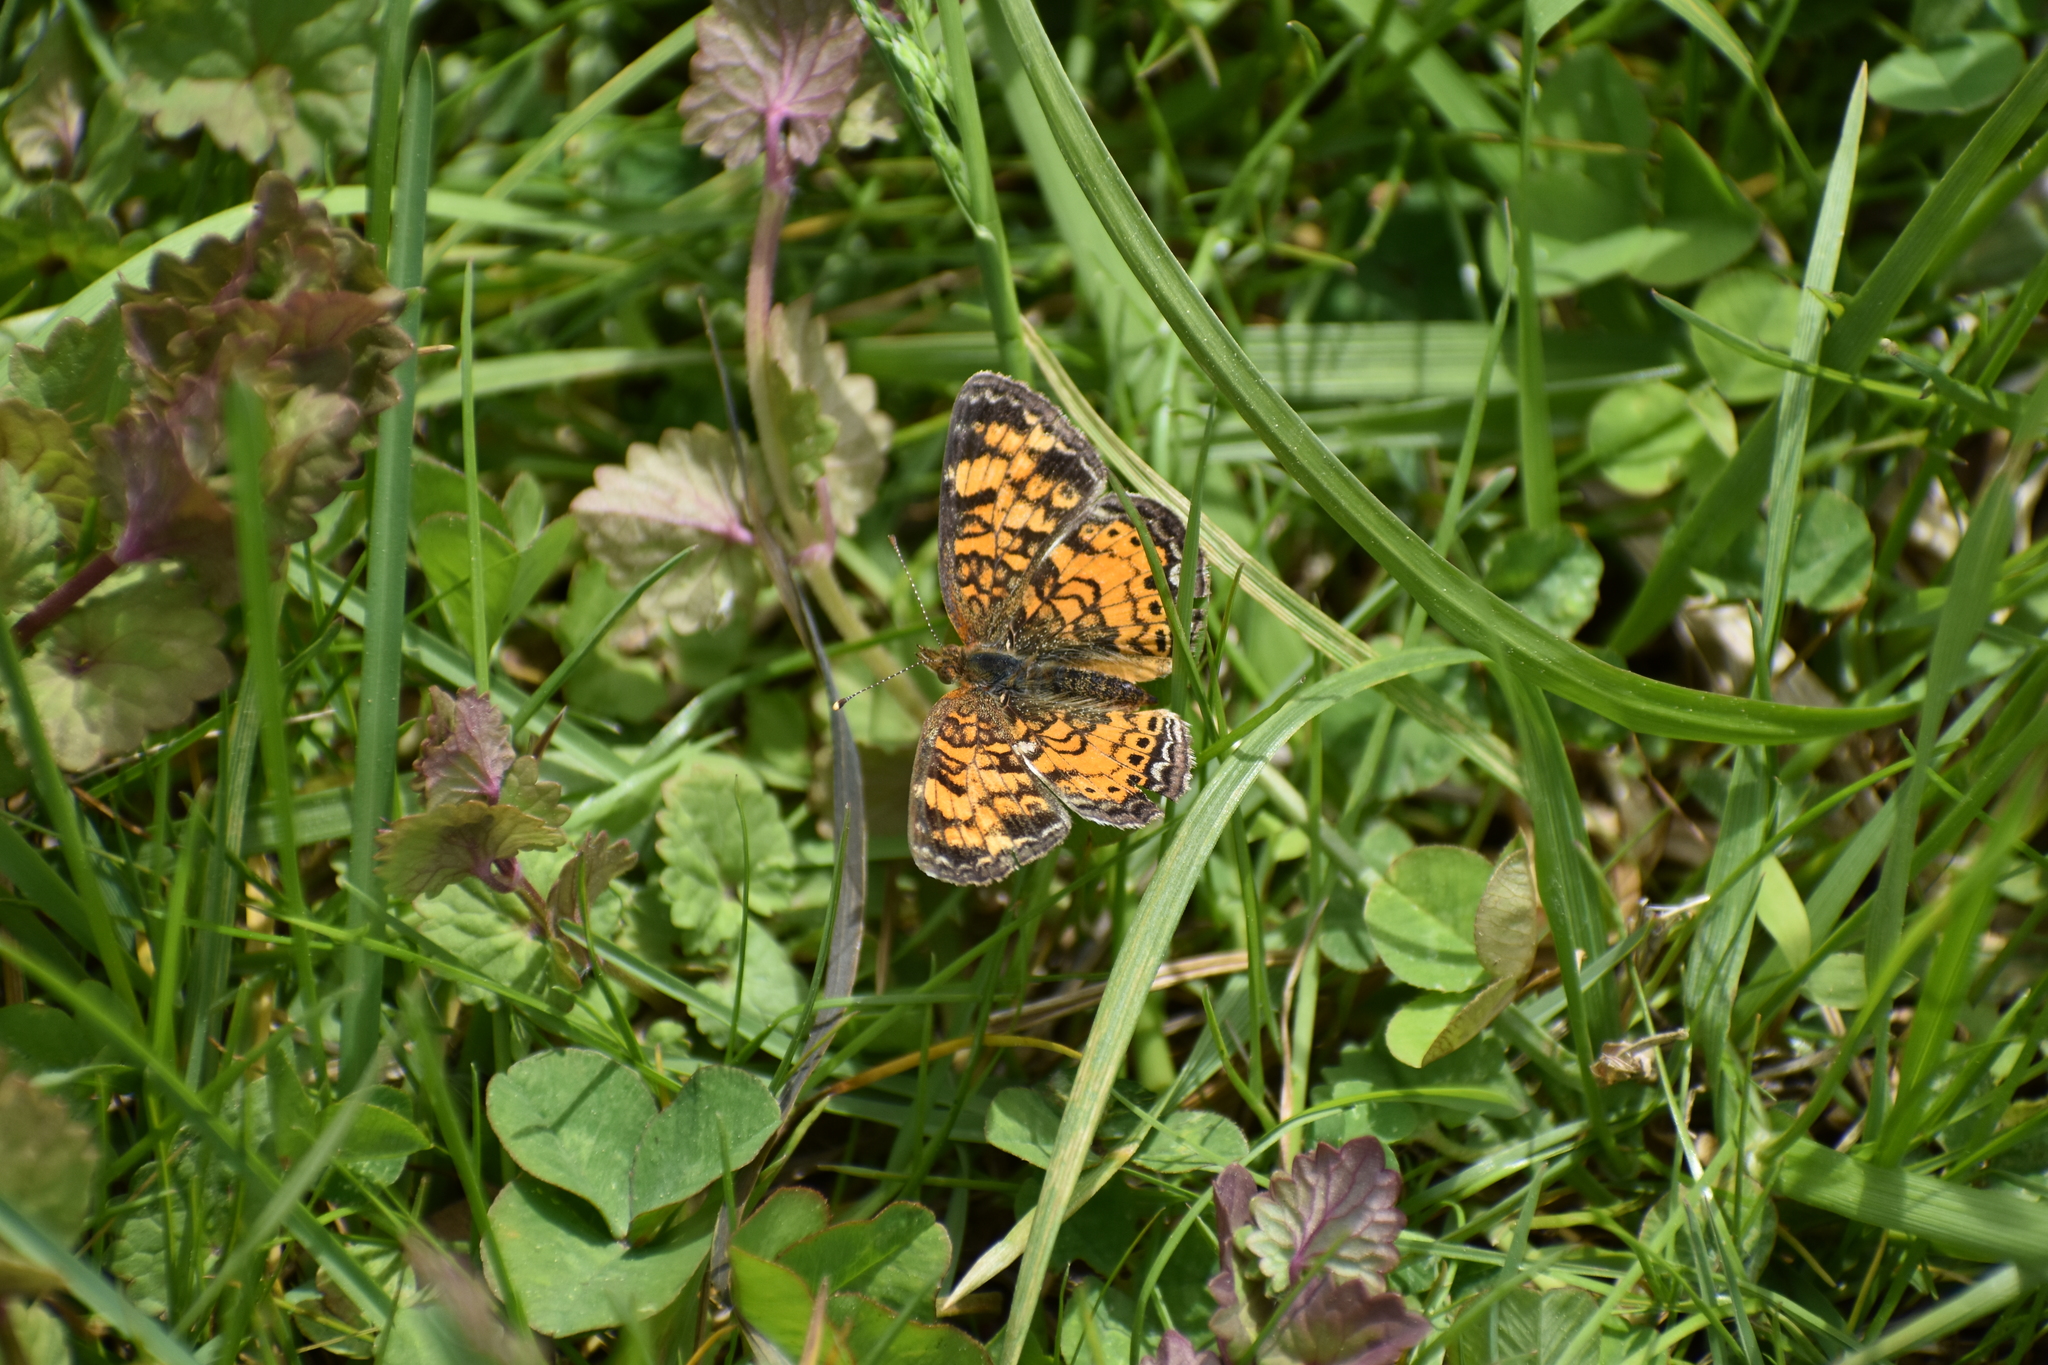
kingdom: Animalia
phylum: Arthropoda
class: Insecta
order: Lepidoptera
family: Nymphalidae
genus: Phyciodes
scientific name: Phyciodes tharos
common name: Pearl crescent
